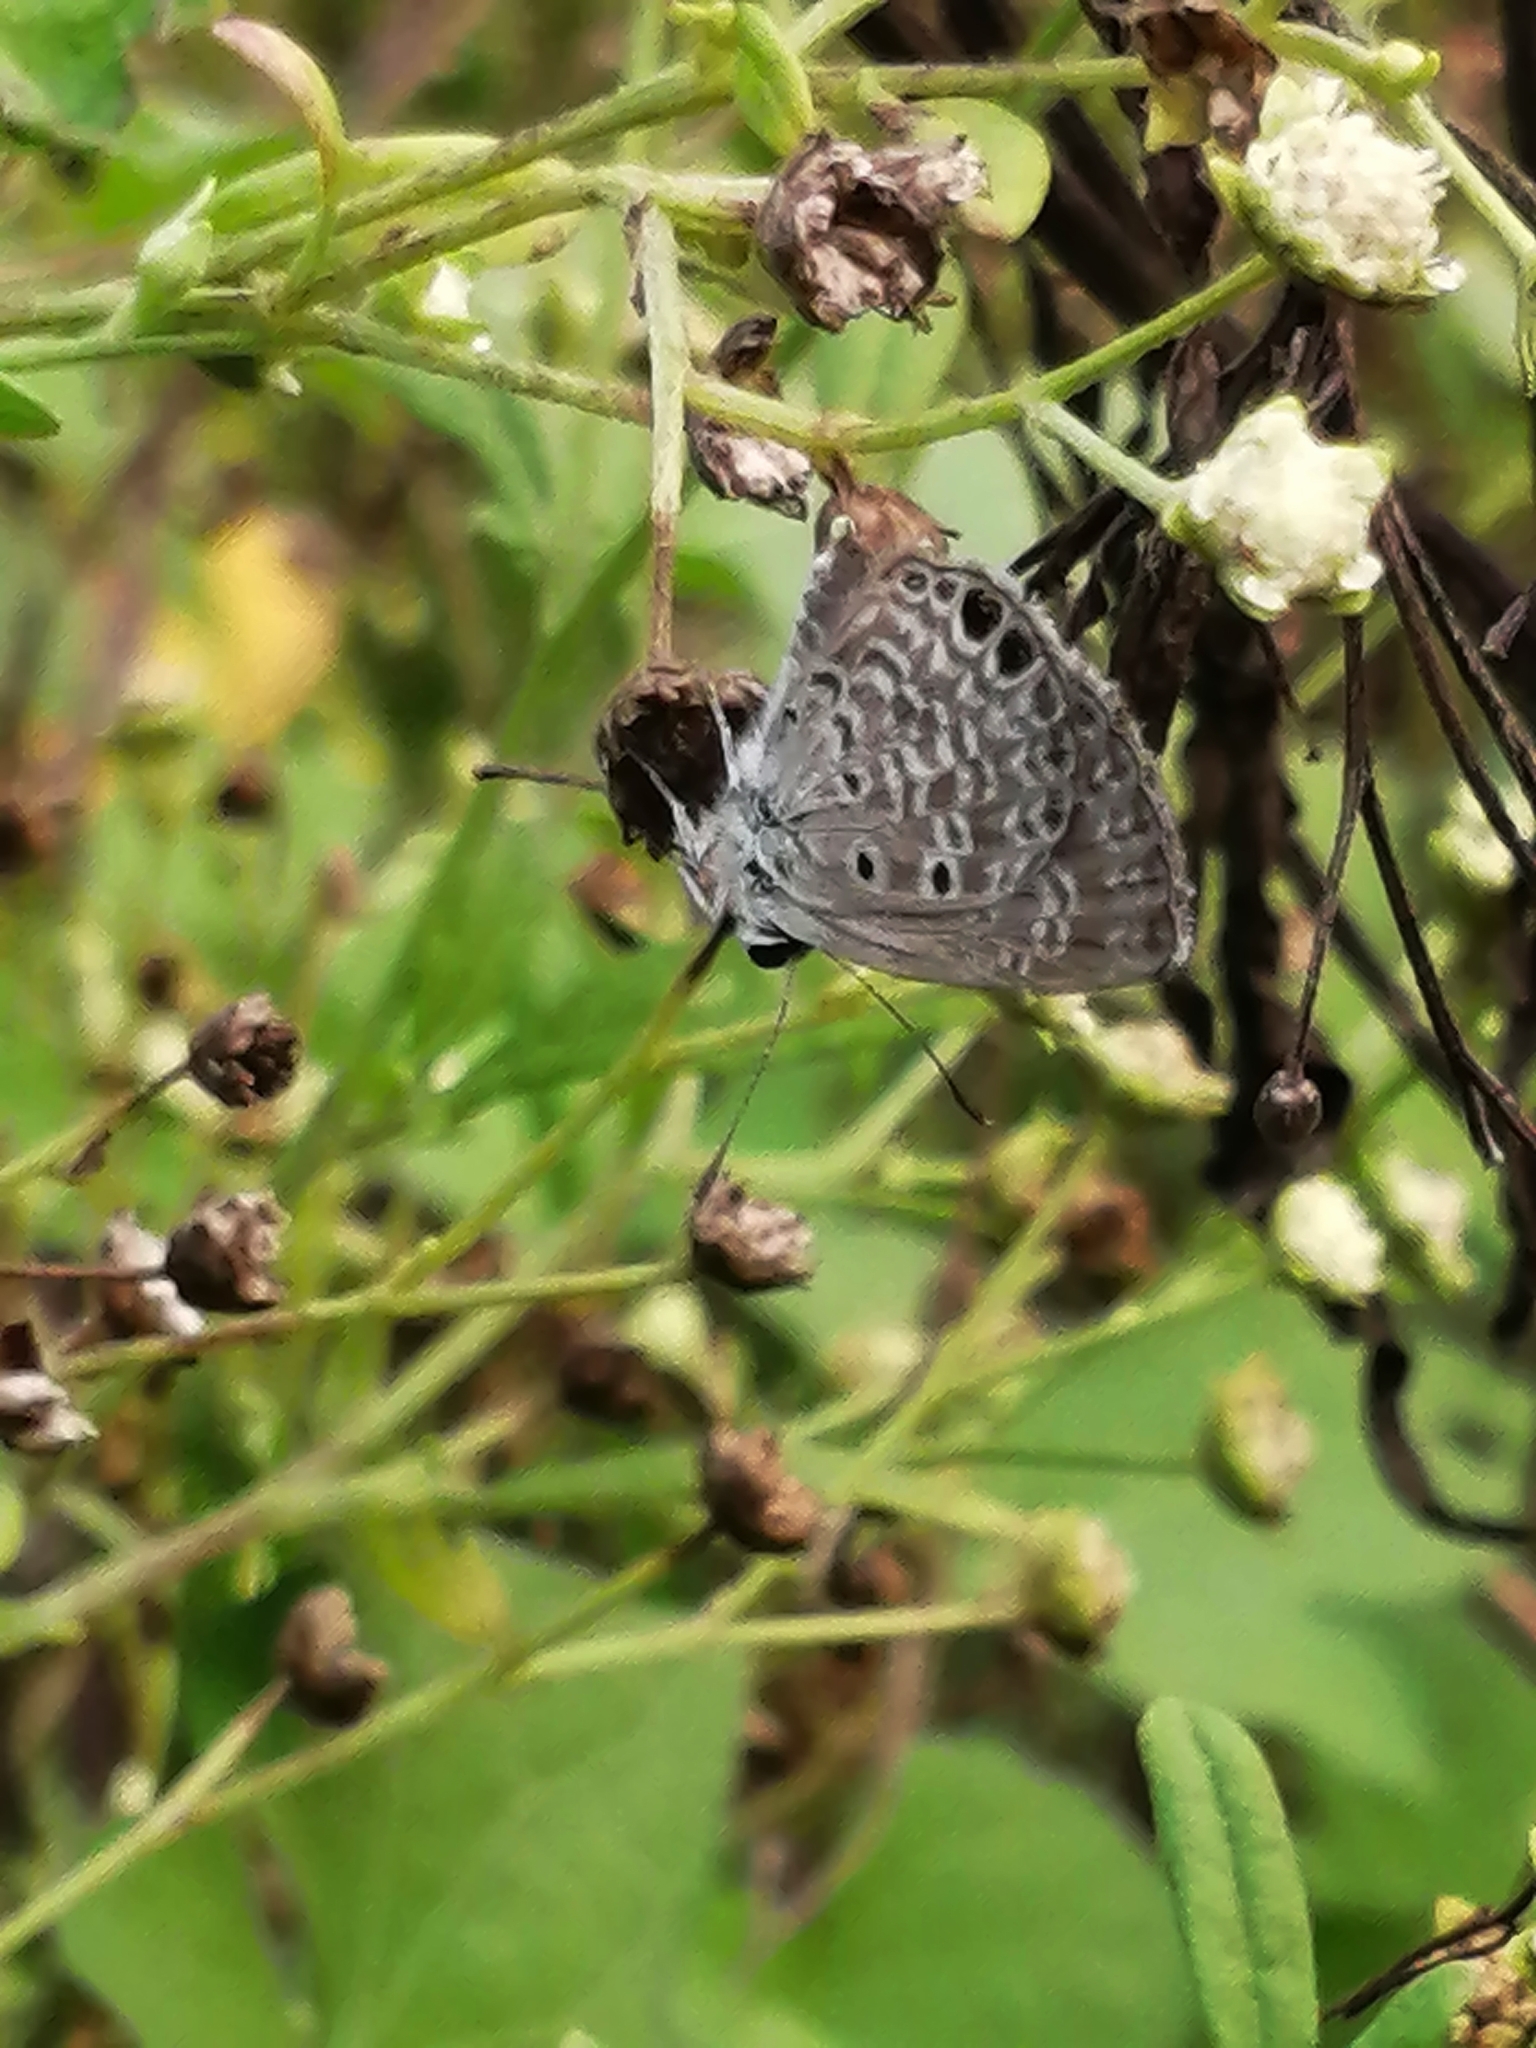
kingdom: Animalia
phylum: Arthropoda
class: Insecta
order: Lepidoptera
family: Lycaenidae
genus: Hemiargus
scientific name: Hemiargus ceraunus
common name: Ceraunus blue
